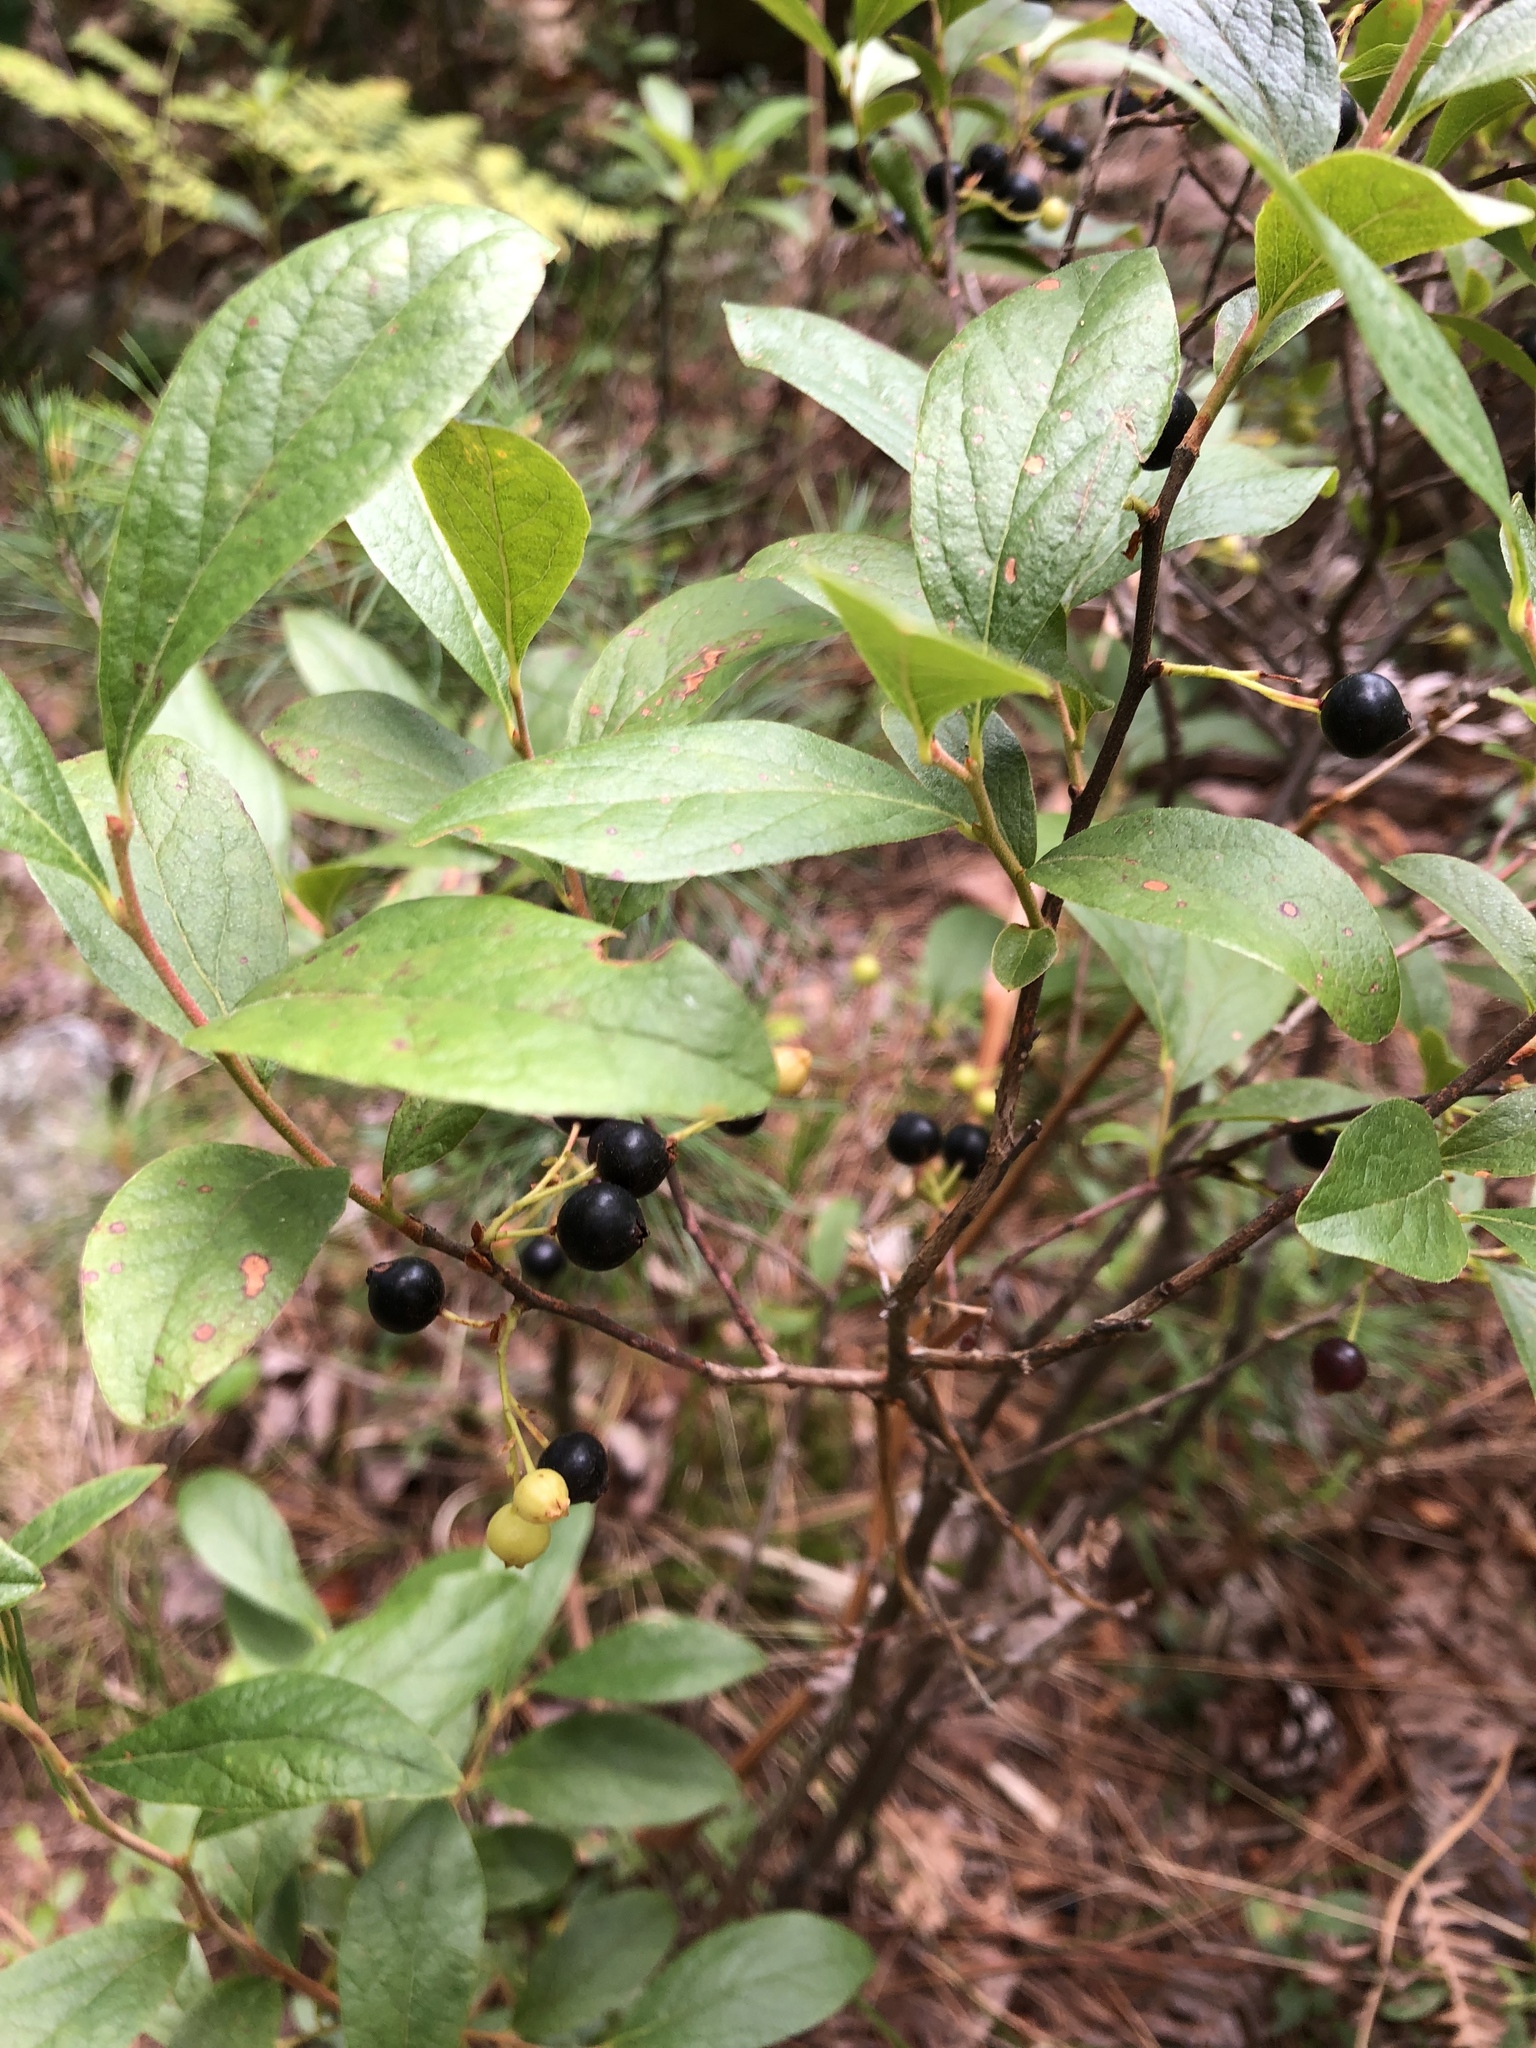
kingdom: Plantae
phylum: Tracheophyta
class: Magnoliopsida
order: Ericales
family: Ericaceae
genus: Gaylussacia
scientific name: Gaylussacia baccata
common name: Black huckleberry
